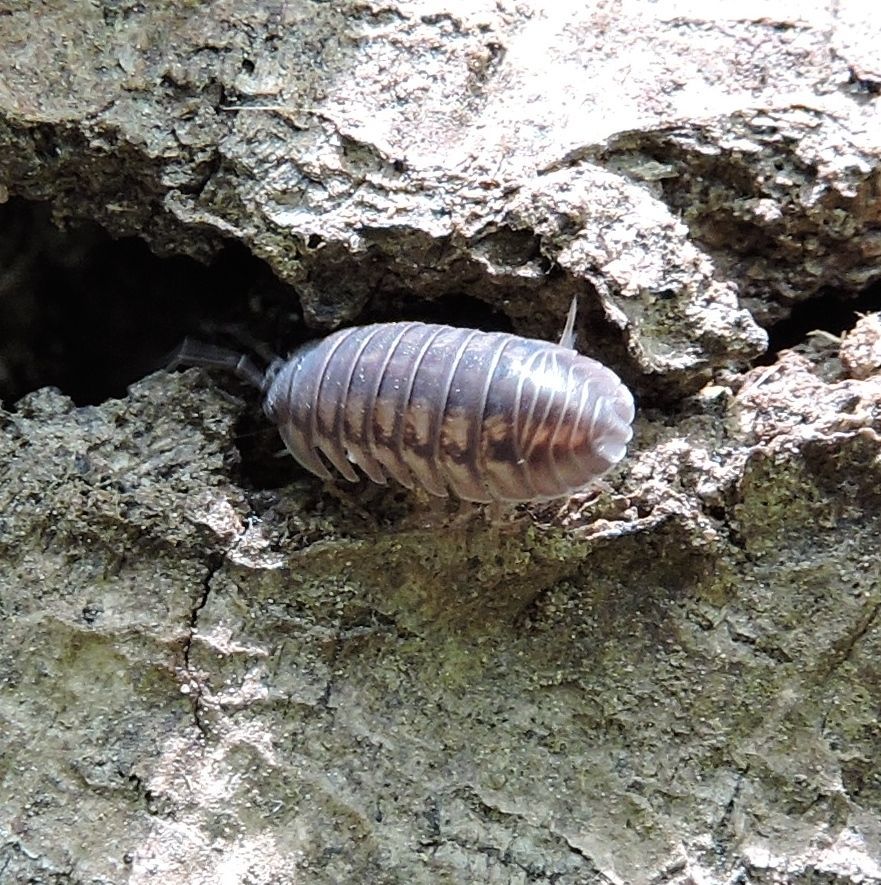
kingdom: Animalia
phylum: Arthropoda
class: Malacostraca
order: Isopoda
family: Armadillidiidae
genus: Armadillidium
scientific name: Armadillidium nasatum
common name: Isopod
